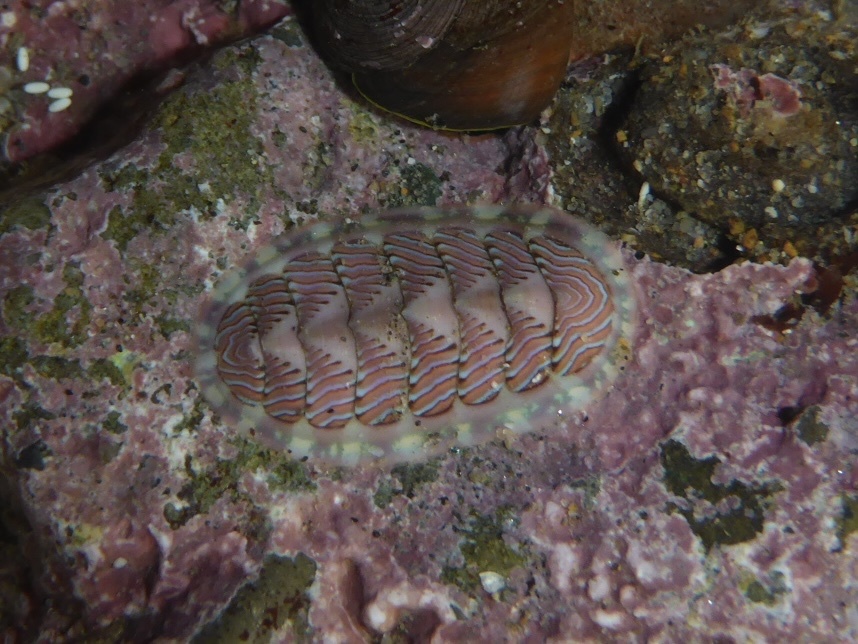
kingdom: Animalia
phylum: Mollusca
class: Polyplacophora
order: Chitonida
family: Tonicellidae
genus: Tonicella
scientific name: Tonicella lineata
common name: Lined chiton
